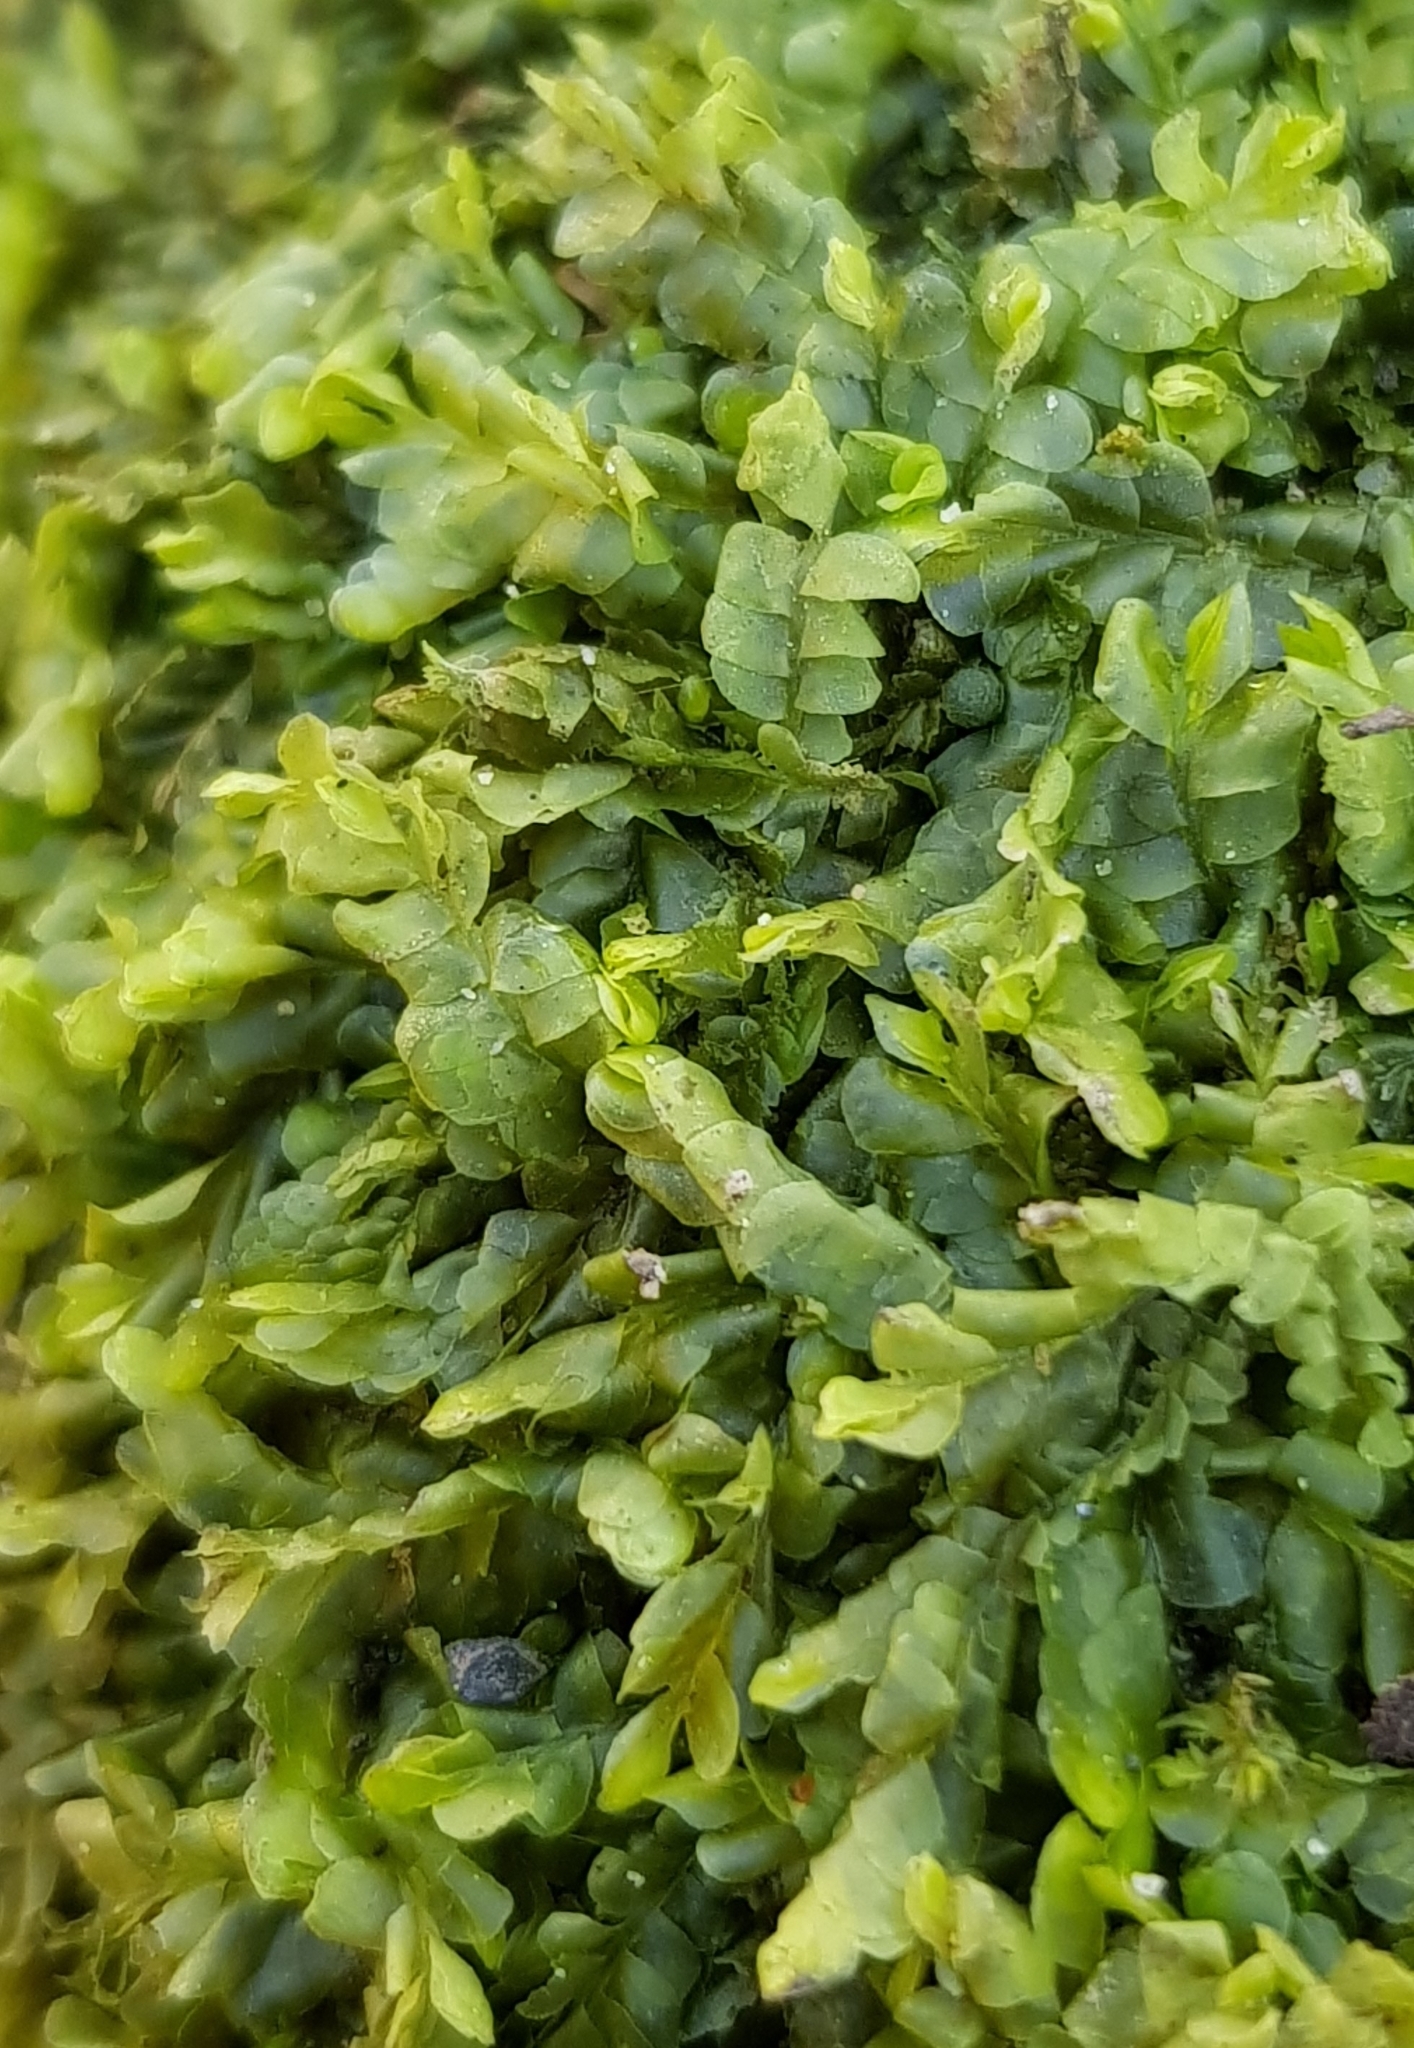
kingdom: Plantae
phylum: Marchantiophyta
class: Jungermanniopsida
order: Jungermanniales
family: Lophocoleaceae
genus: Chiloscyphus
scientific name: Chiloscyphus polyanthos
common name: Square-leaved crestwort
